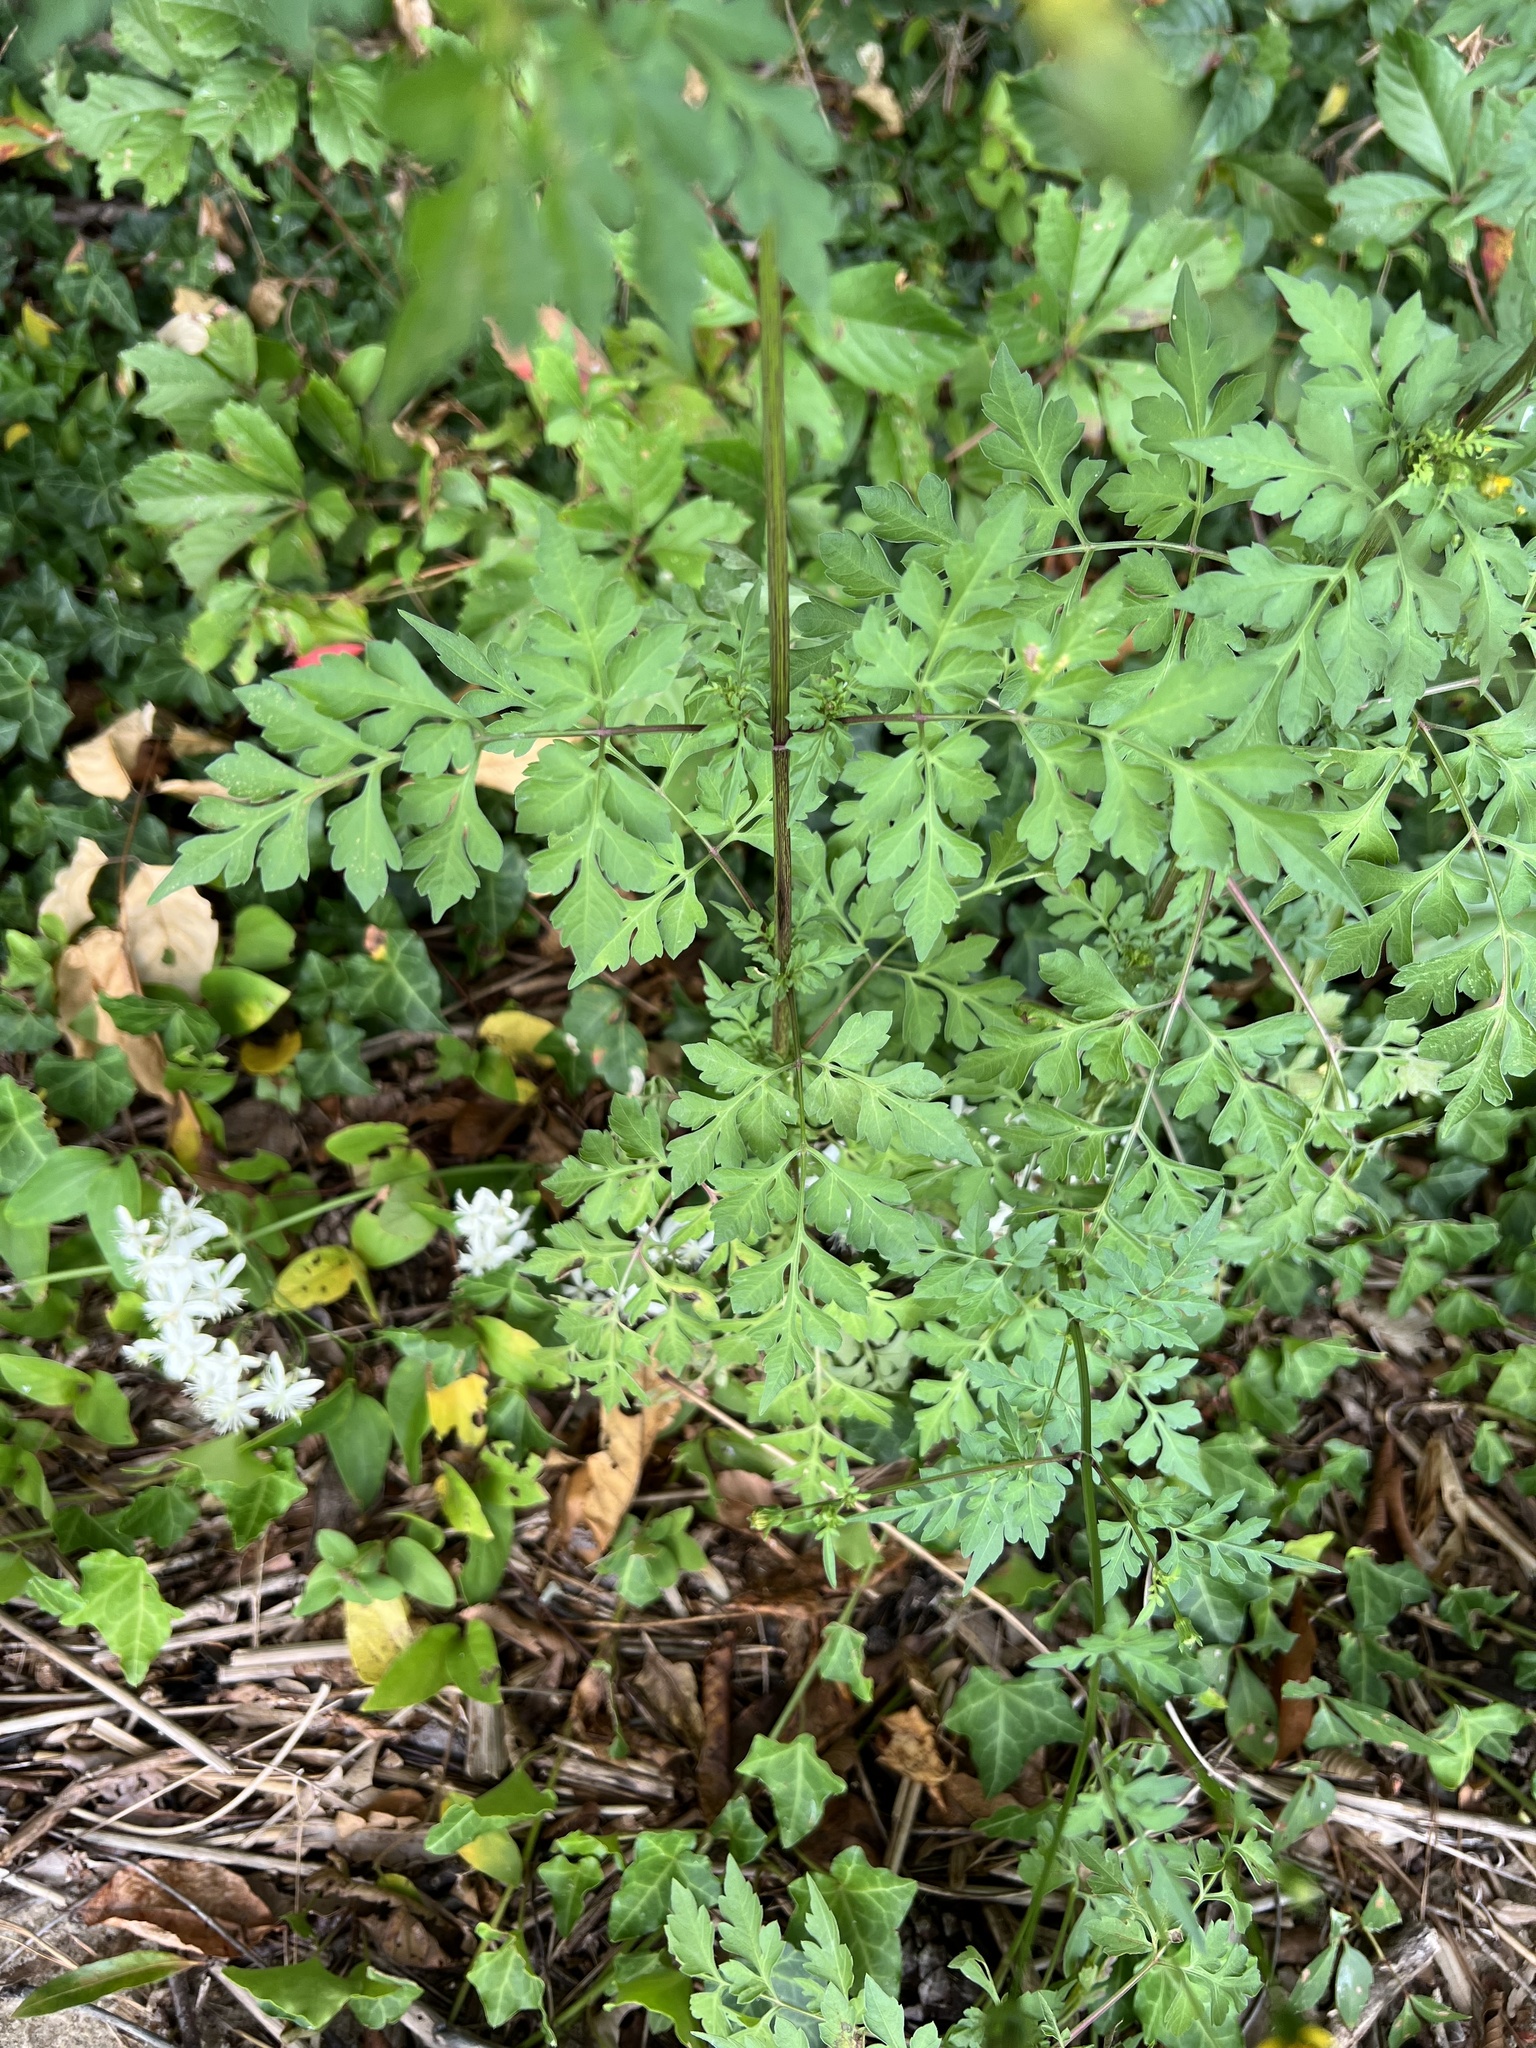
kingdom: Plantae
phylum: Tracheophyta
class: Magnoliopsida
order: Asterales
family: Asteraceae
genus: Bidens
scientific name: Bidens bipinnata
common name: Spanish-needles
